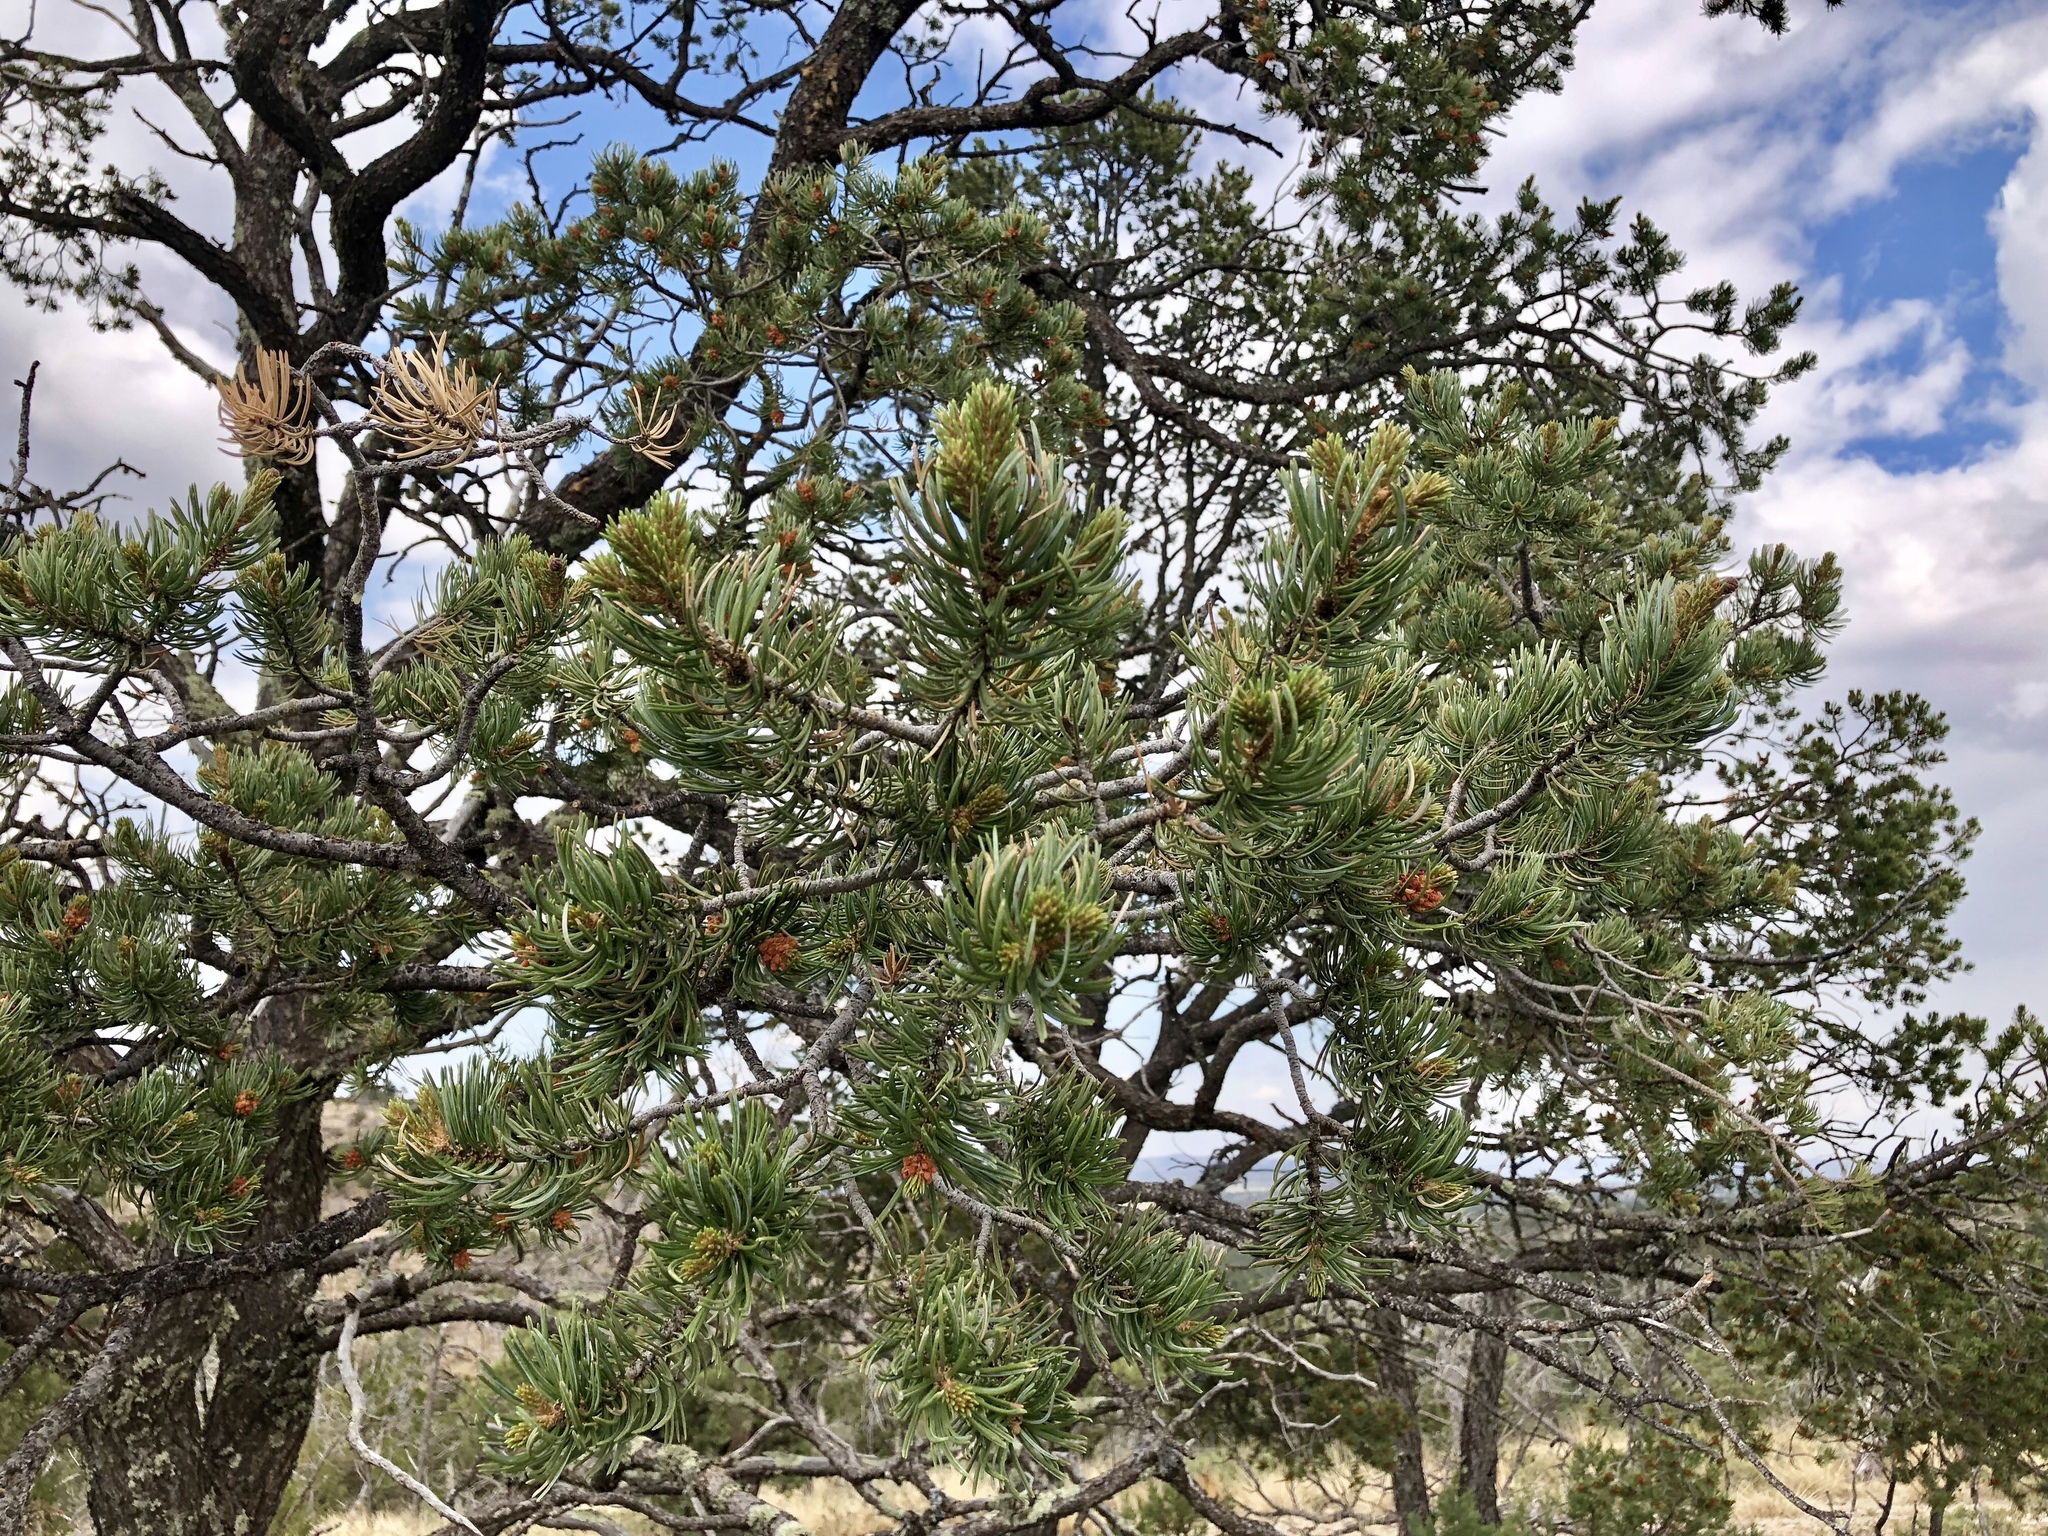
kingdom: Plantae
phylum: Tracheophyta
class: Pinopsida
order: Pinales
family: Pinaceae
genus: Pinus
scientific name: Pinus edulis
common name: Colorado pinyon
